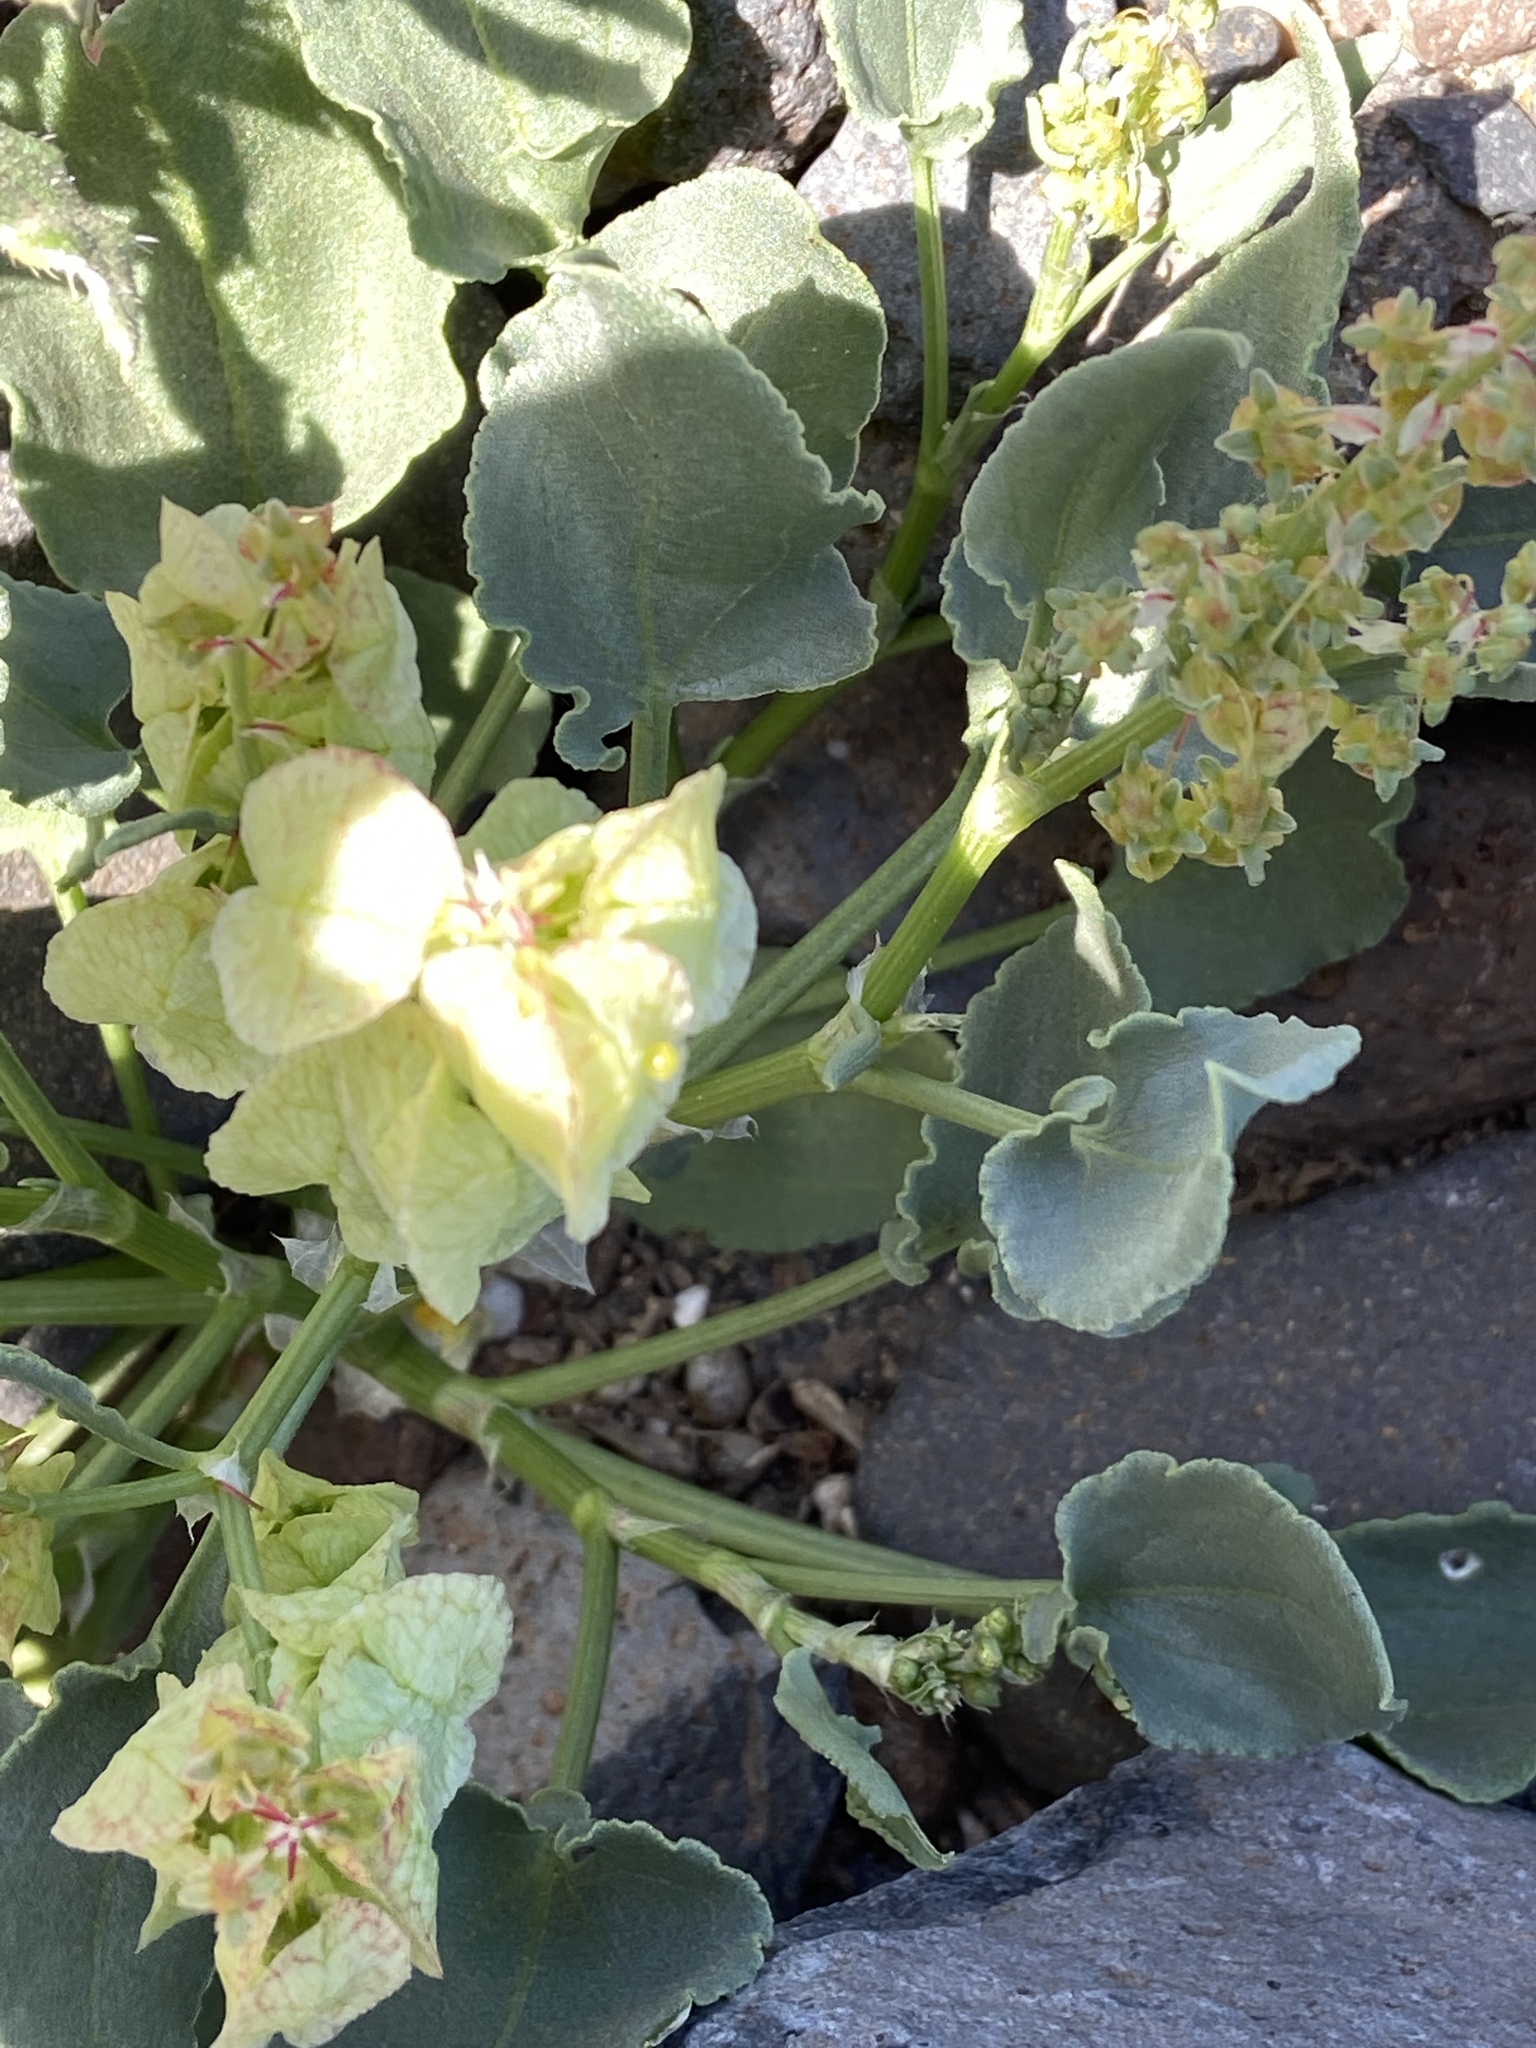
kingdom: Plantae
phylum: Tracheophyta
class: Magnoliopsida
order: Caryophyllales
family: Polygonaceae
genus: Rumex
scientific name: Rumex vesicarius
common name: Bladder dock
